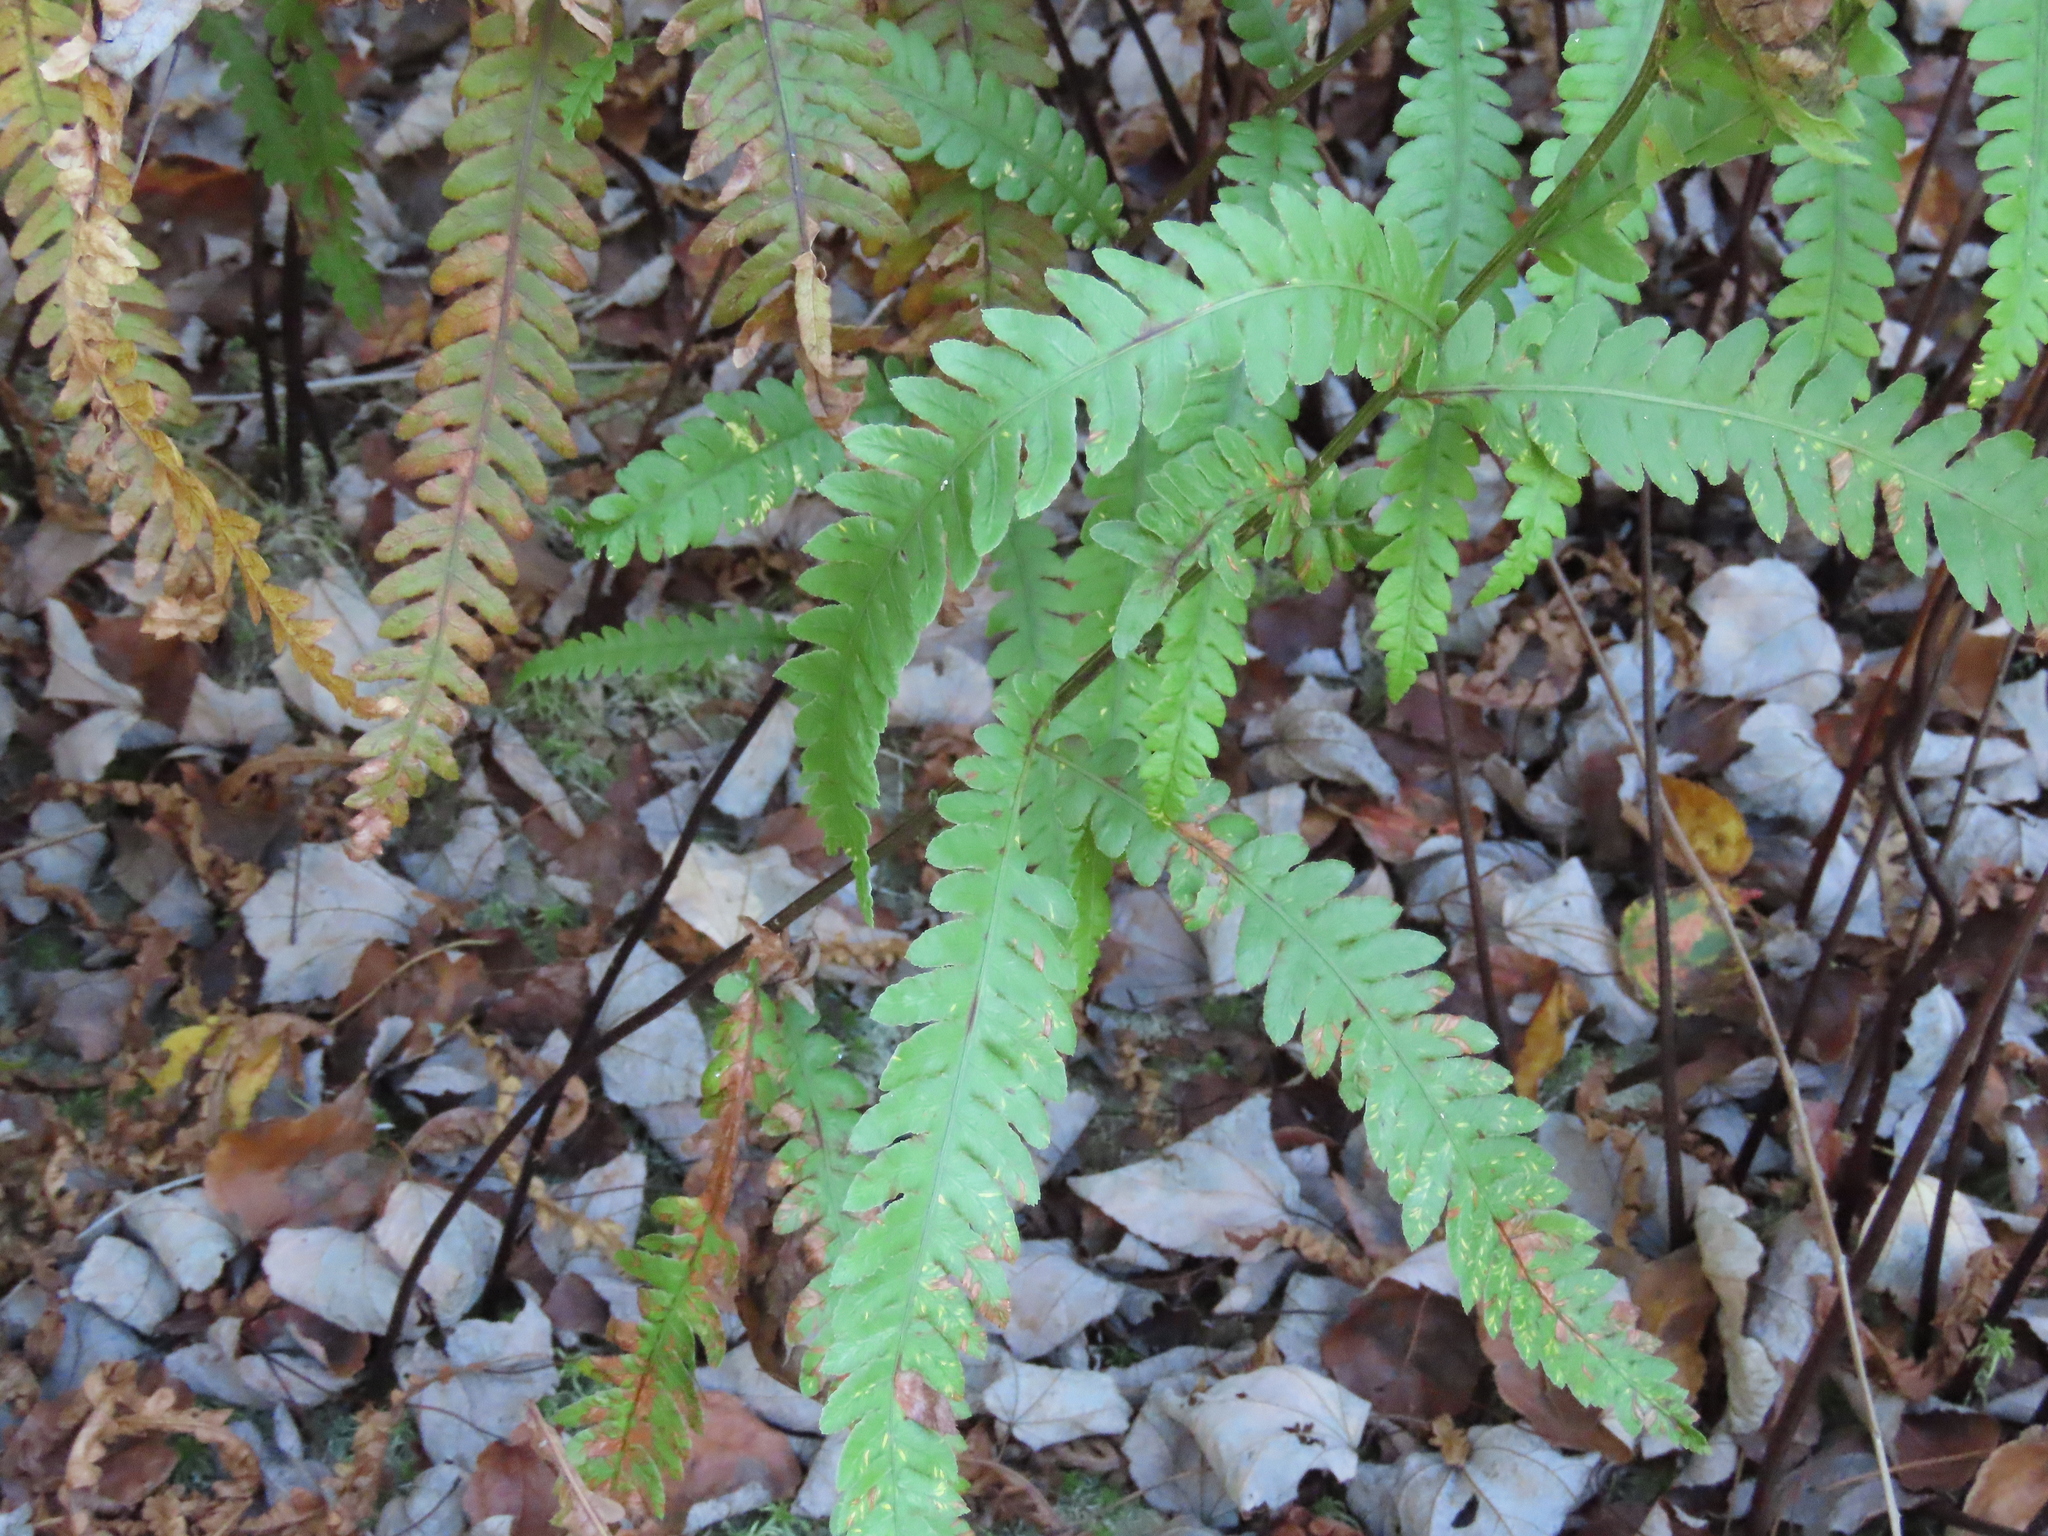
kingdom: Plantae
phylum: Tracheophyta
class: Polypodiopsida
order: Polypodiales
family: Blechnaceae
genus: Anchistea
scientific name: Anchistea virginica
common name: Virginia chain fern
